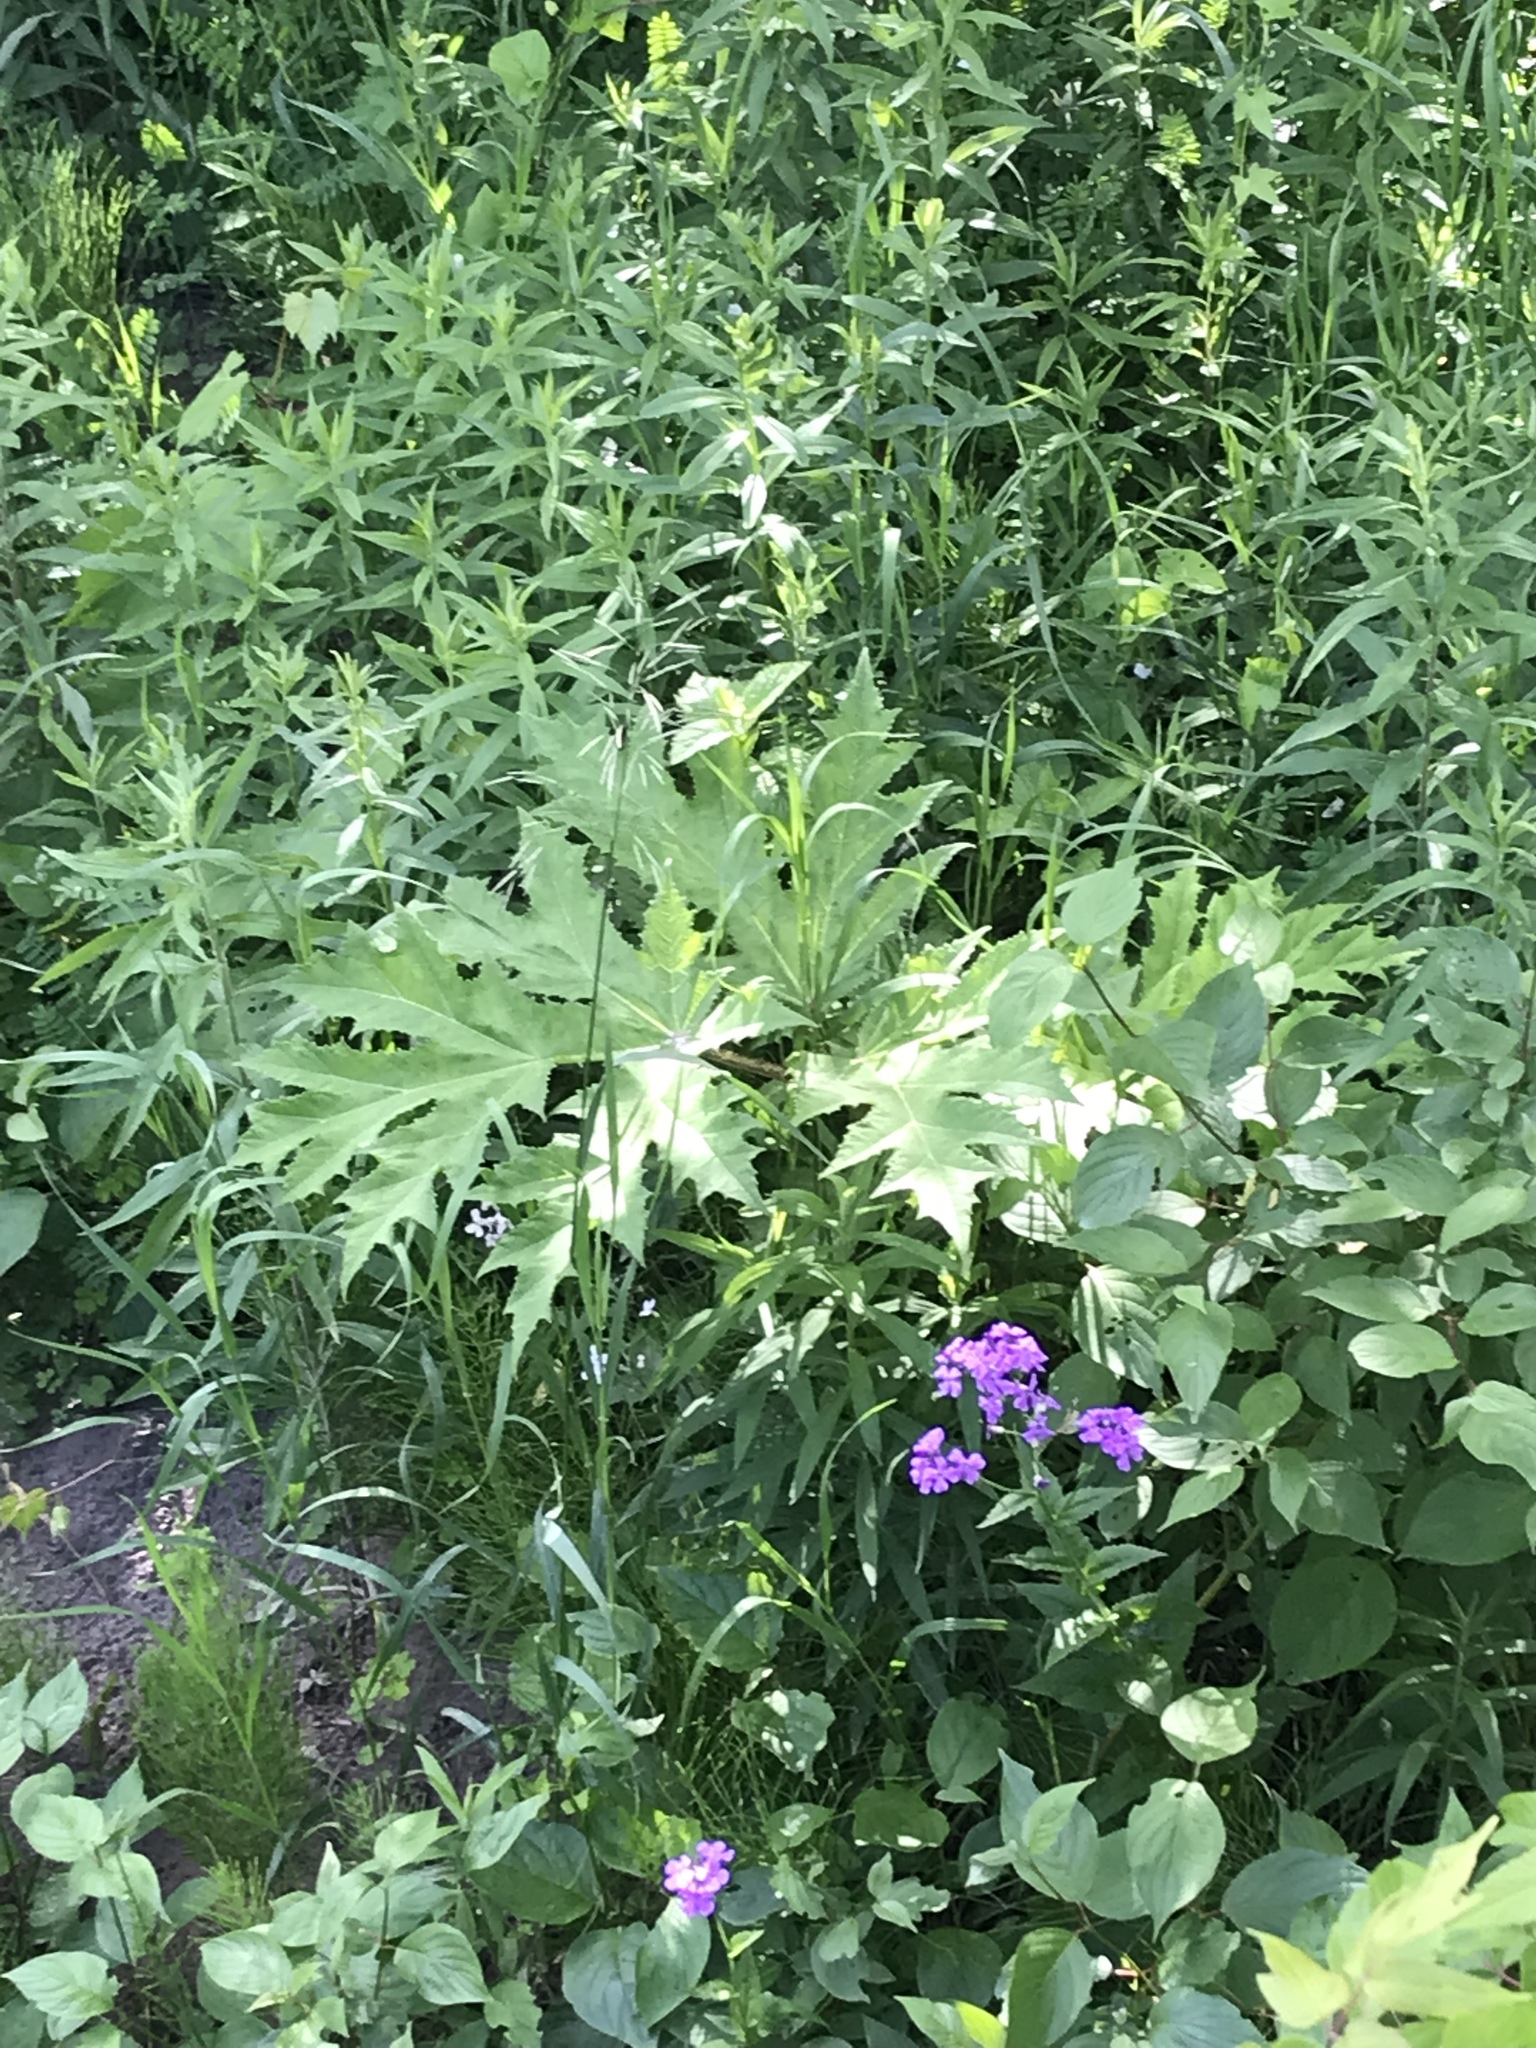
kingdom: Plantae
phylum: Tracheophyta
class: Magnoliopsida
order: Apiales
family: Apiaceae
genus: Heracleum
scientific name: Heracleum mantegazzianum
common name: Giant hogweed
